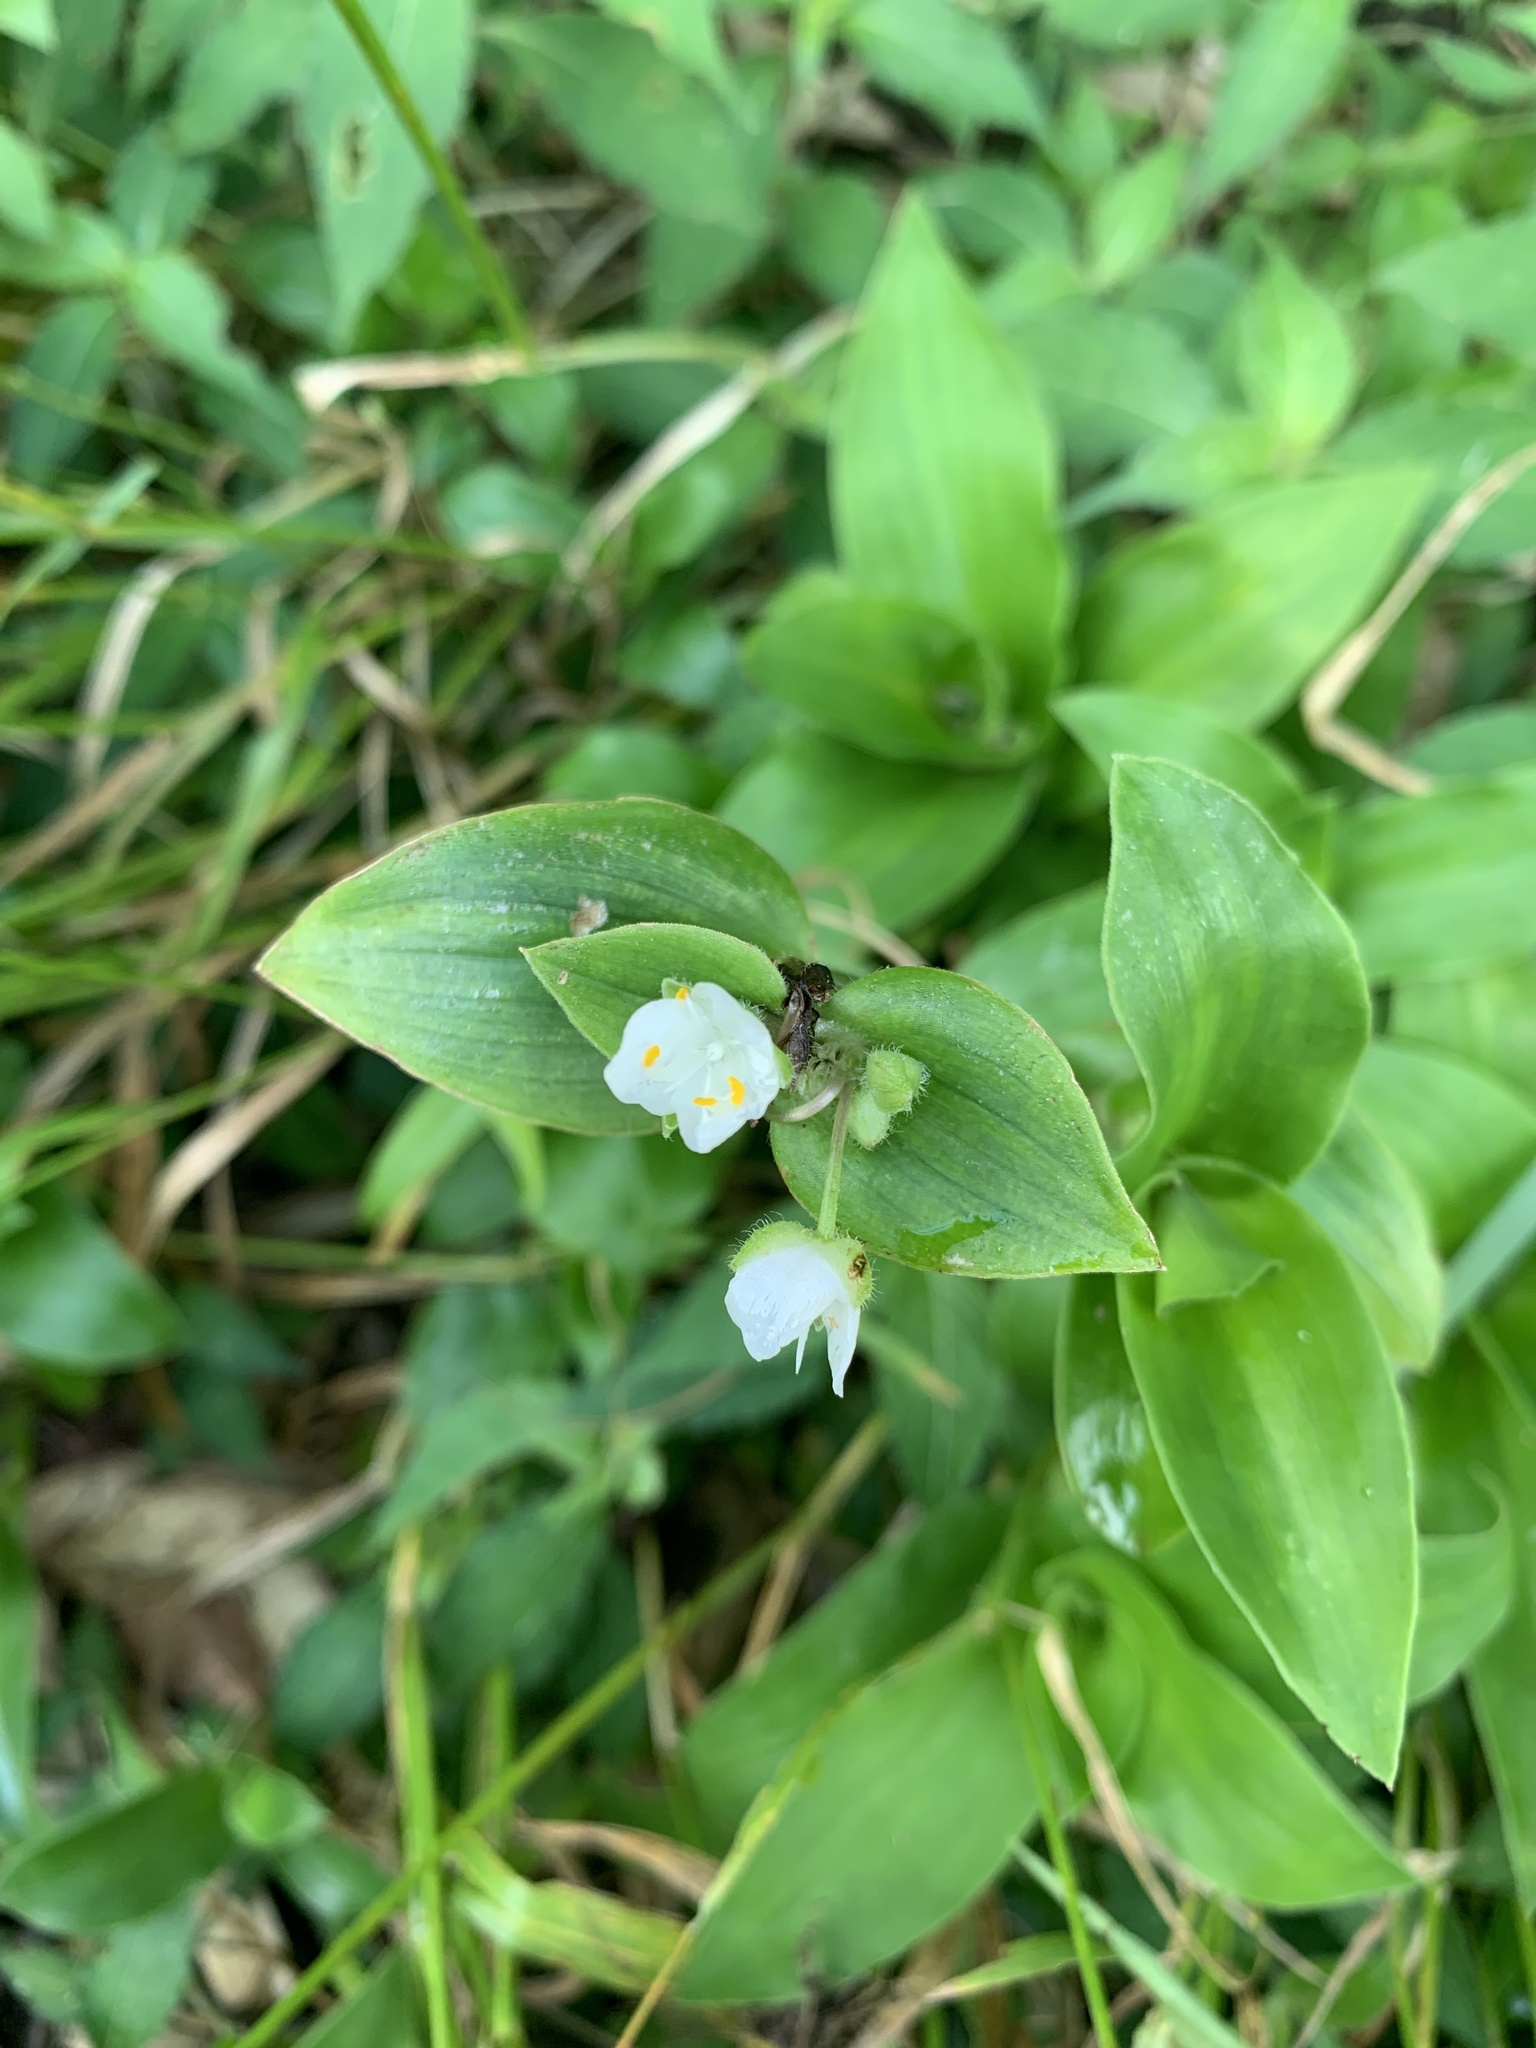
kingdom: Plantae
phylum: Tracheophyta
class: Liliopsida
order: Commelinales
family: Commelinaceae
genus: Tradescantia
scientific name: Tradescantia fluminensis
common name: Wandering-jew
